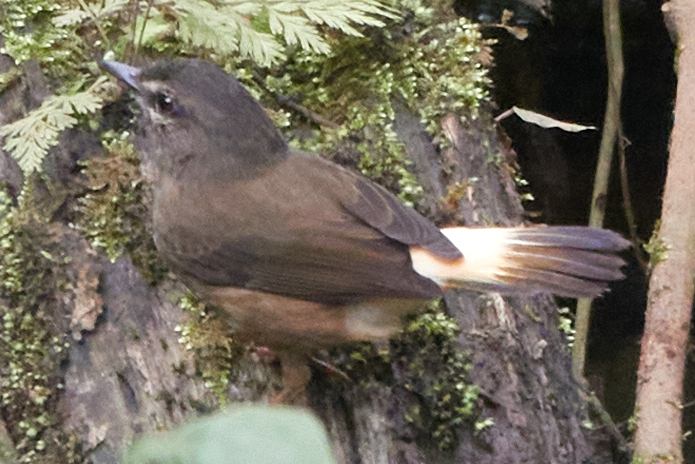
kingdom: Animalia
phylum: Chordata
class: Aves
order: Passeriformes
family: Parulidae
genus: Myiothlypis
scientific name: Myiothlypis fulvicauda
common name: Buff-rumped warbler
